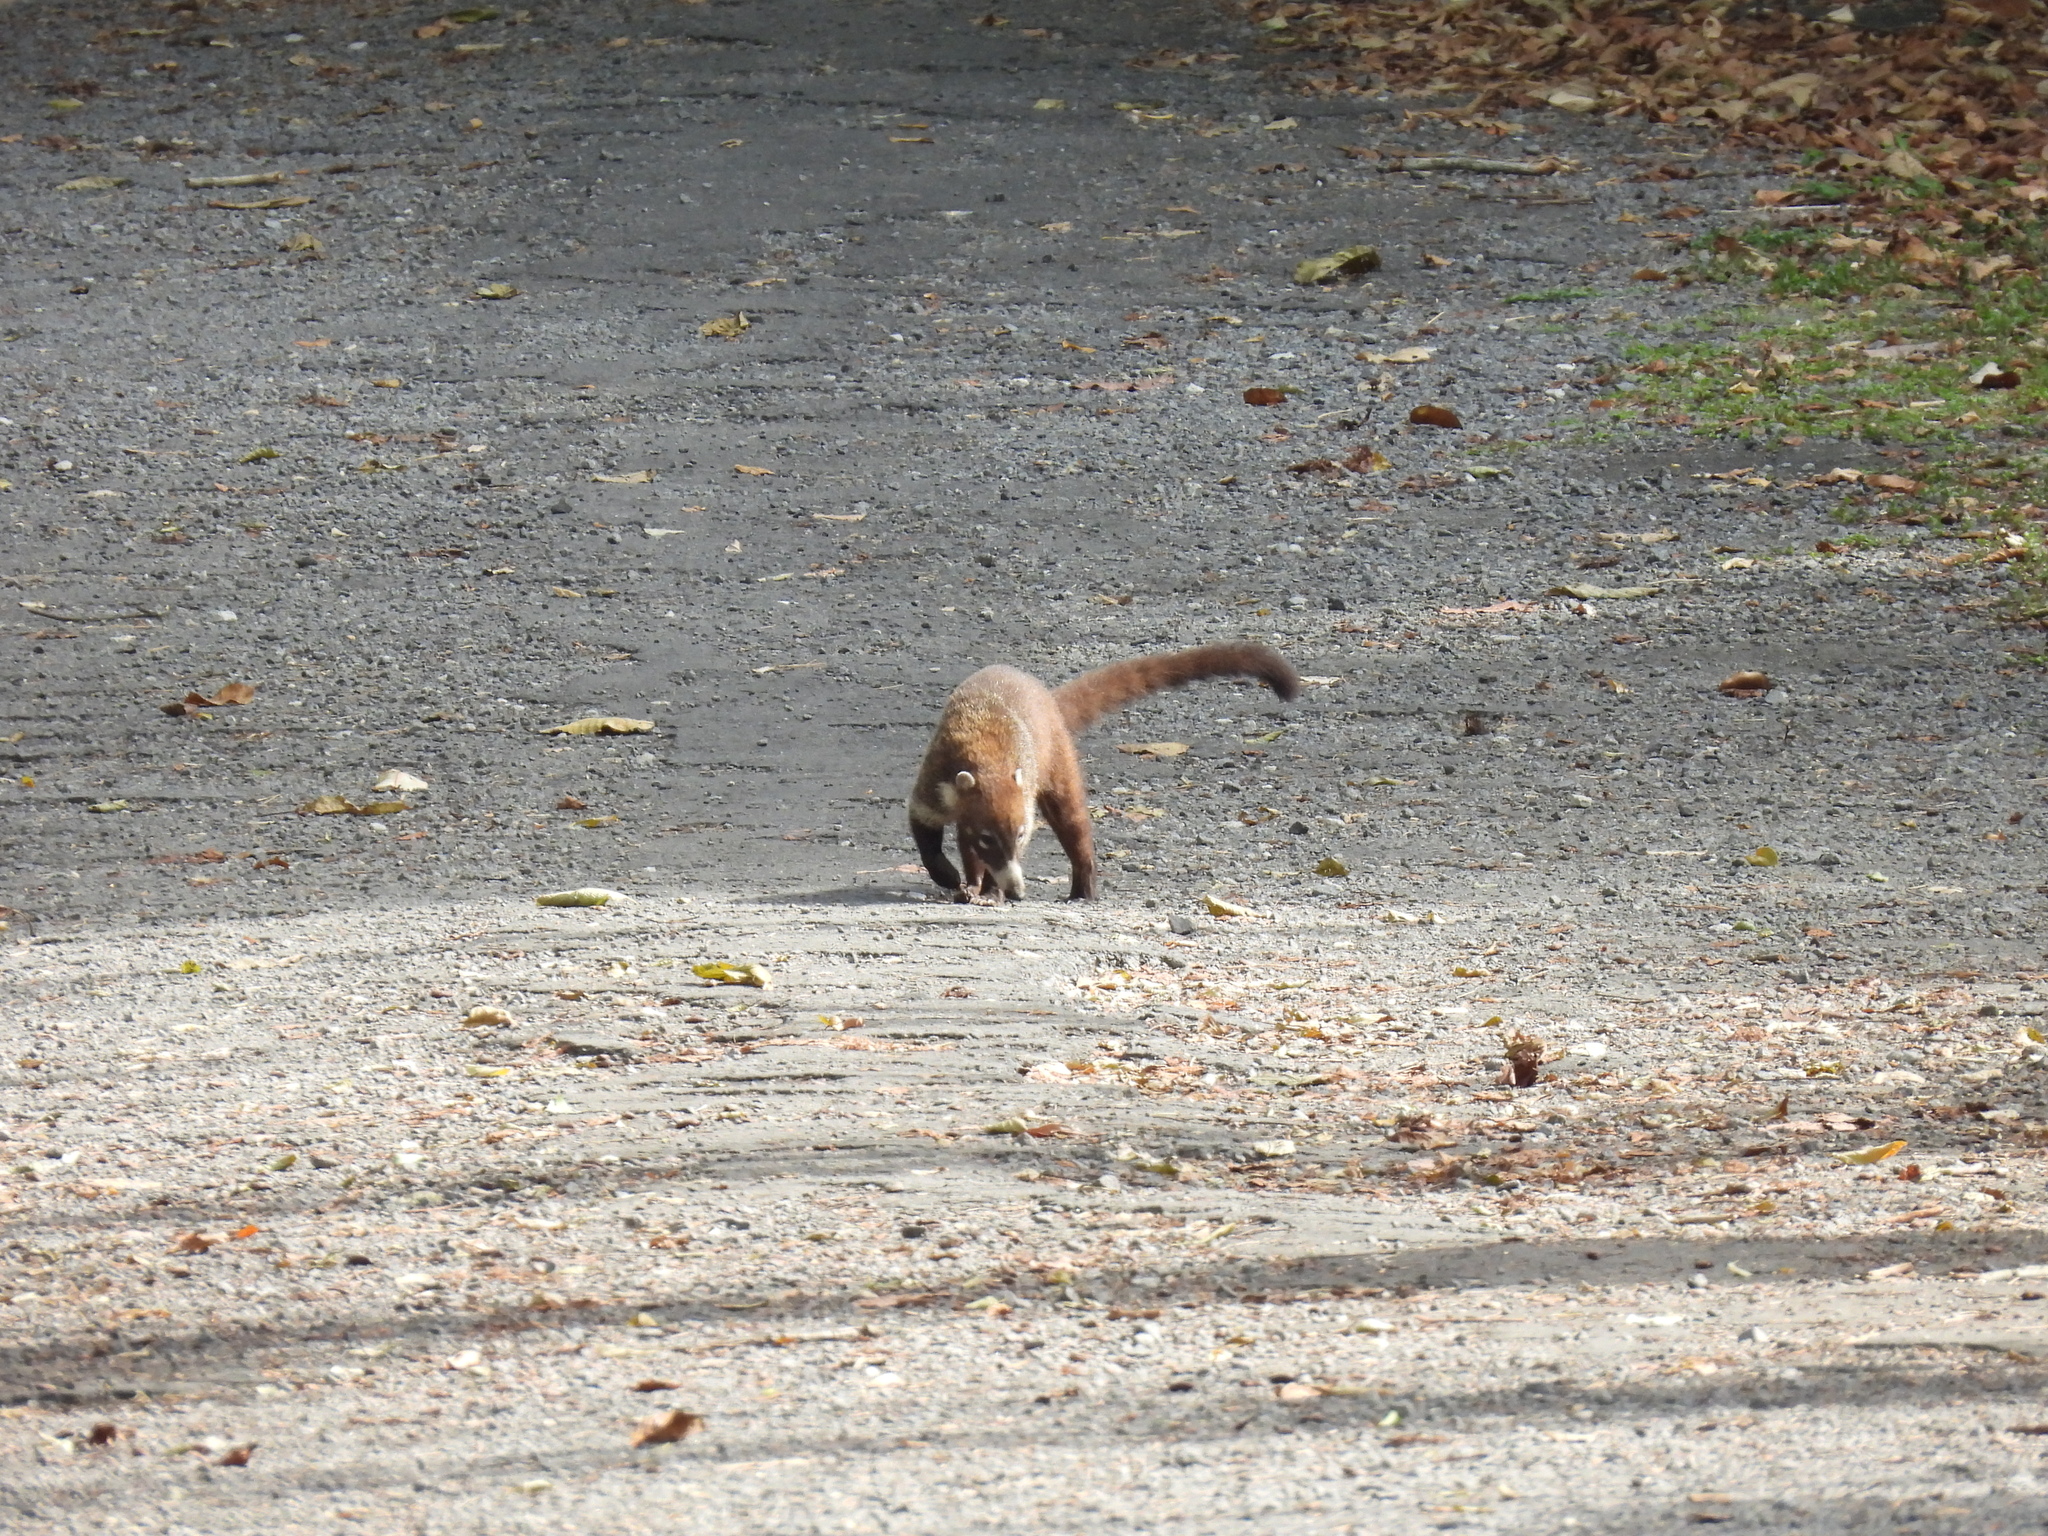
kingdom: Animalia
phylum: Chordata
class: Mammalia
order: Carnivora
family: Procyonidae
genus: Nasua
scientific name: Nasua narica
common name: White-nosed coati
